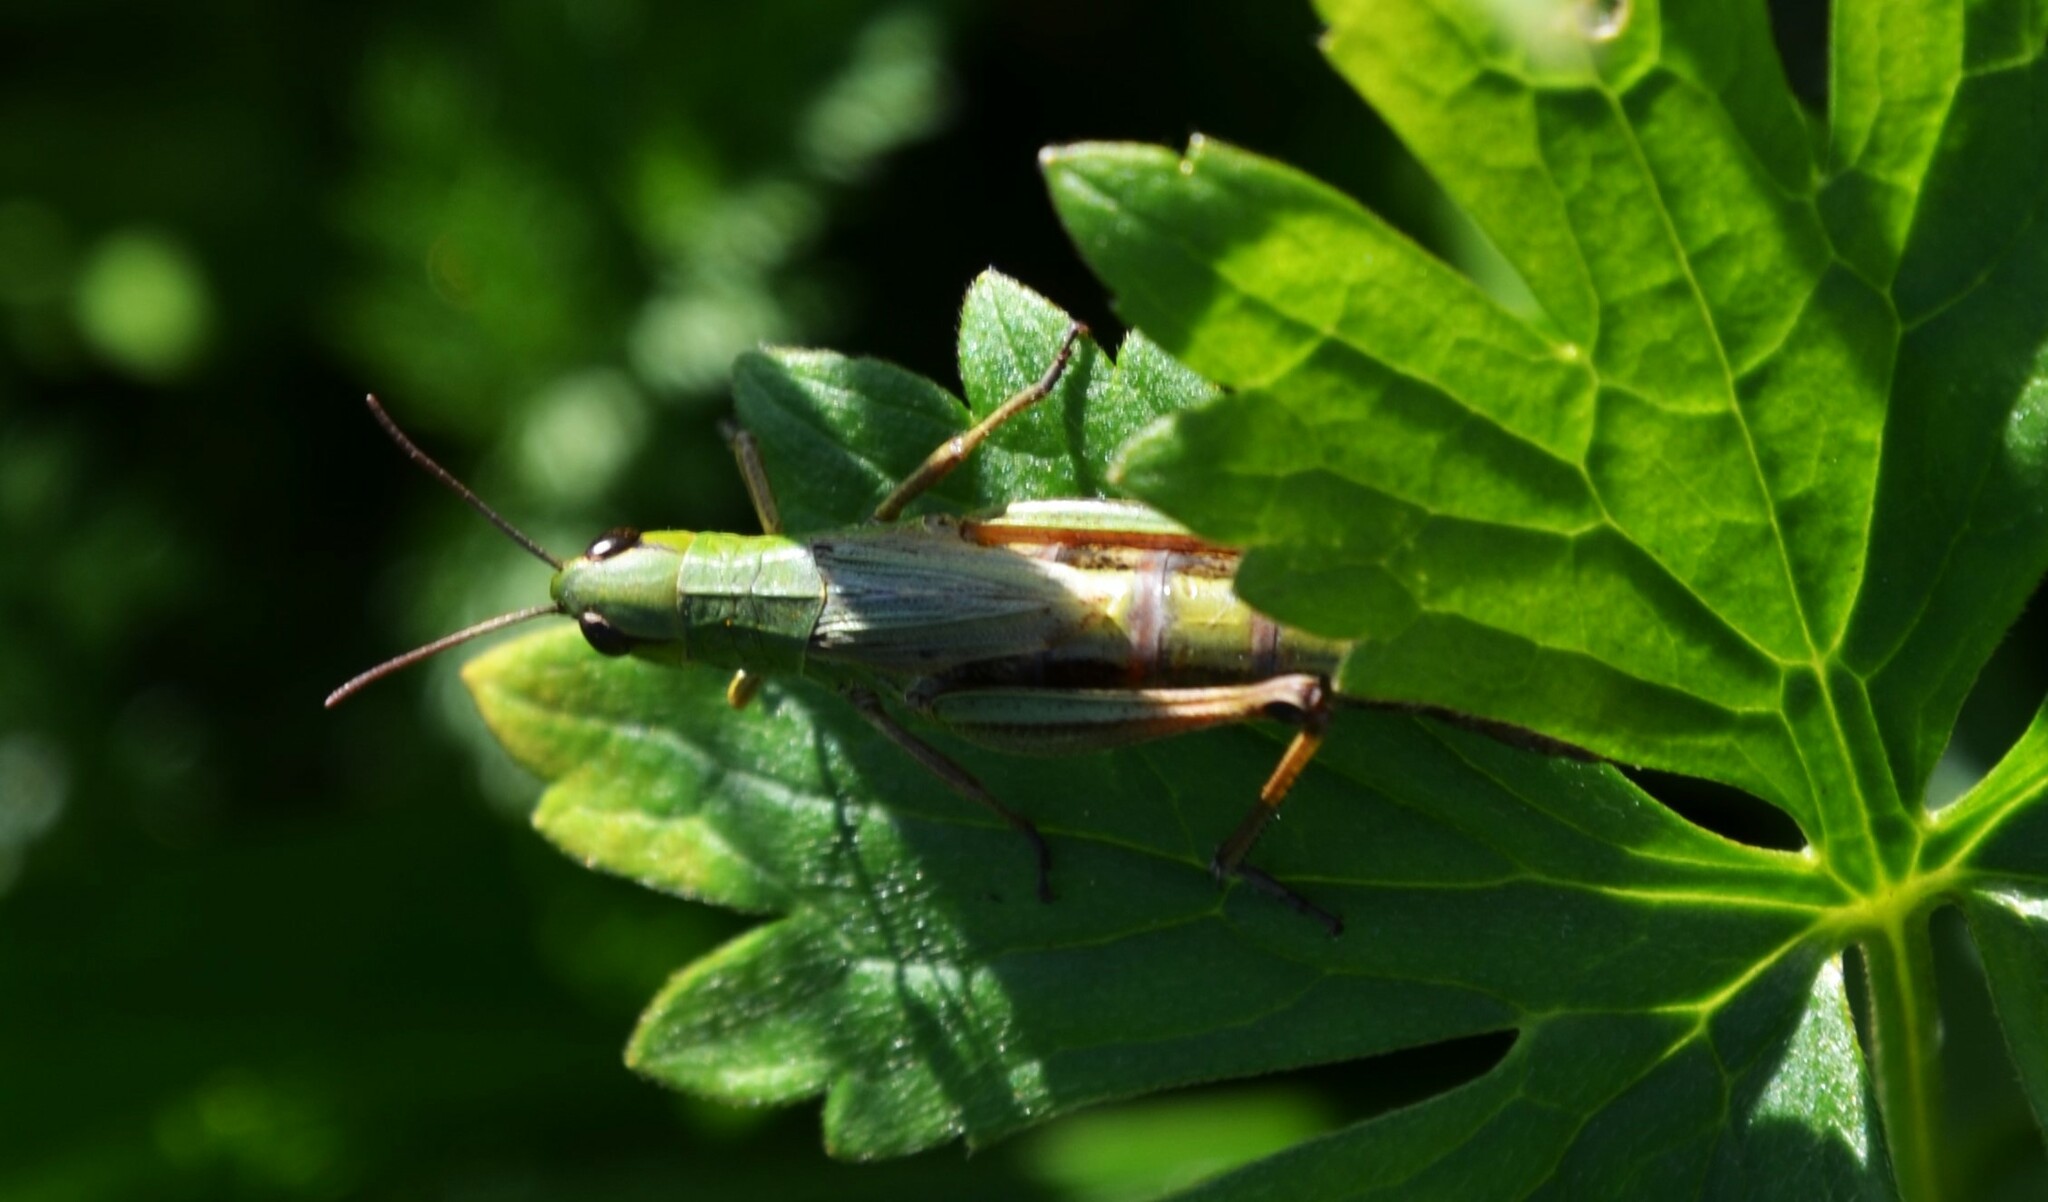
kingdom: Animalia
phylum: Arthropoda
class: Insecta
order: Orthoptera
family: Acrididae
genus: Pseudochorthippus
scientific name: Pseudochorthippus parallelus
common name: Meadow grasshopper
